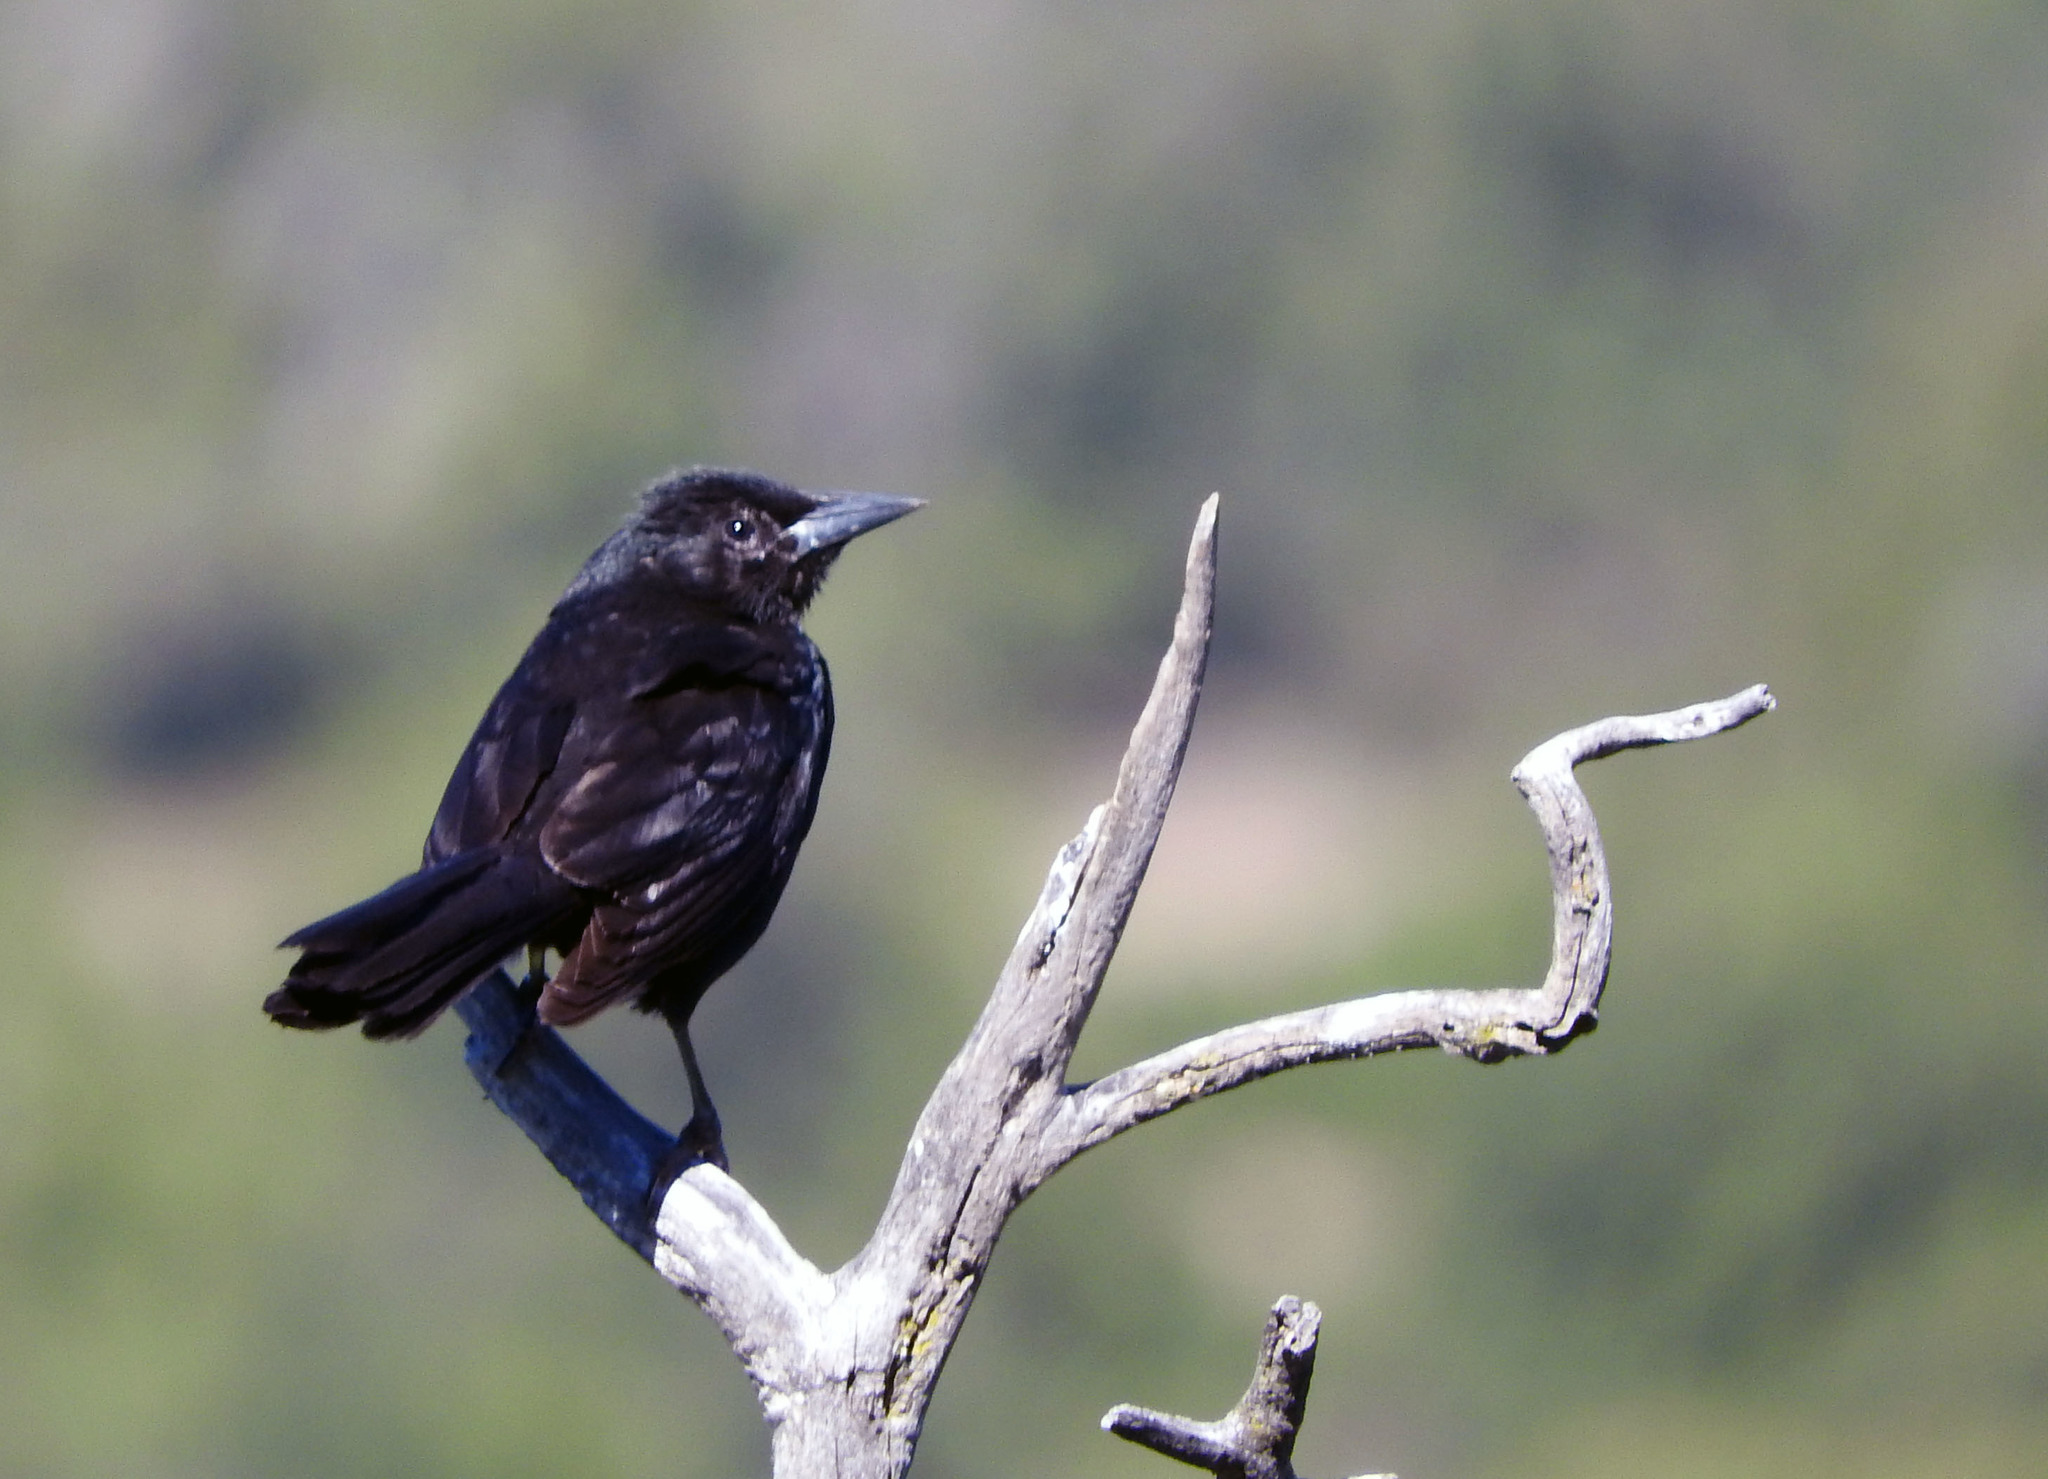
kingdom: Animalia
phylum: Chordata
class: Aves
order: Passeriformes
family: Icteridae
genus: Curaeus
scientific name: Curaeus curaeus
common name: Austral blackbird
